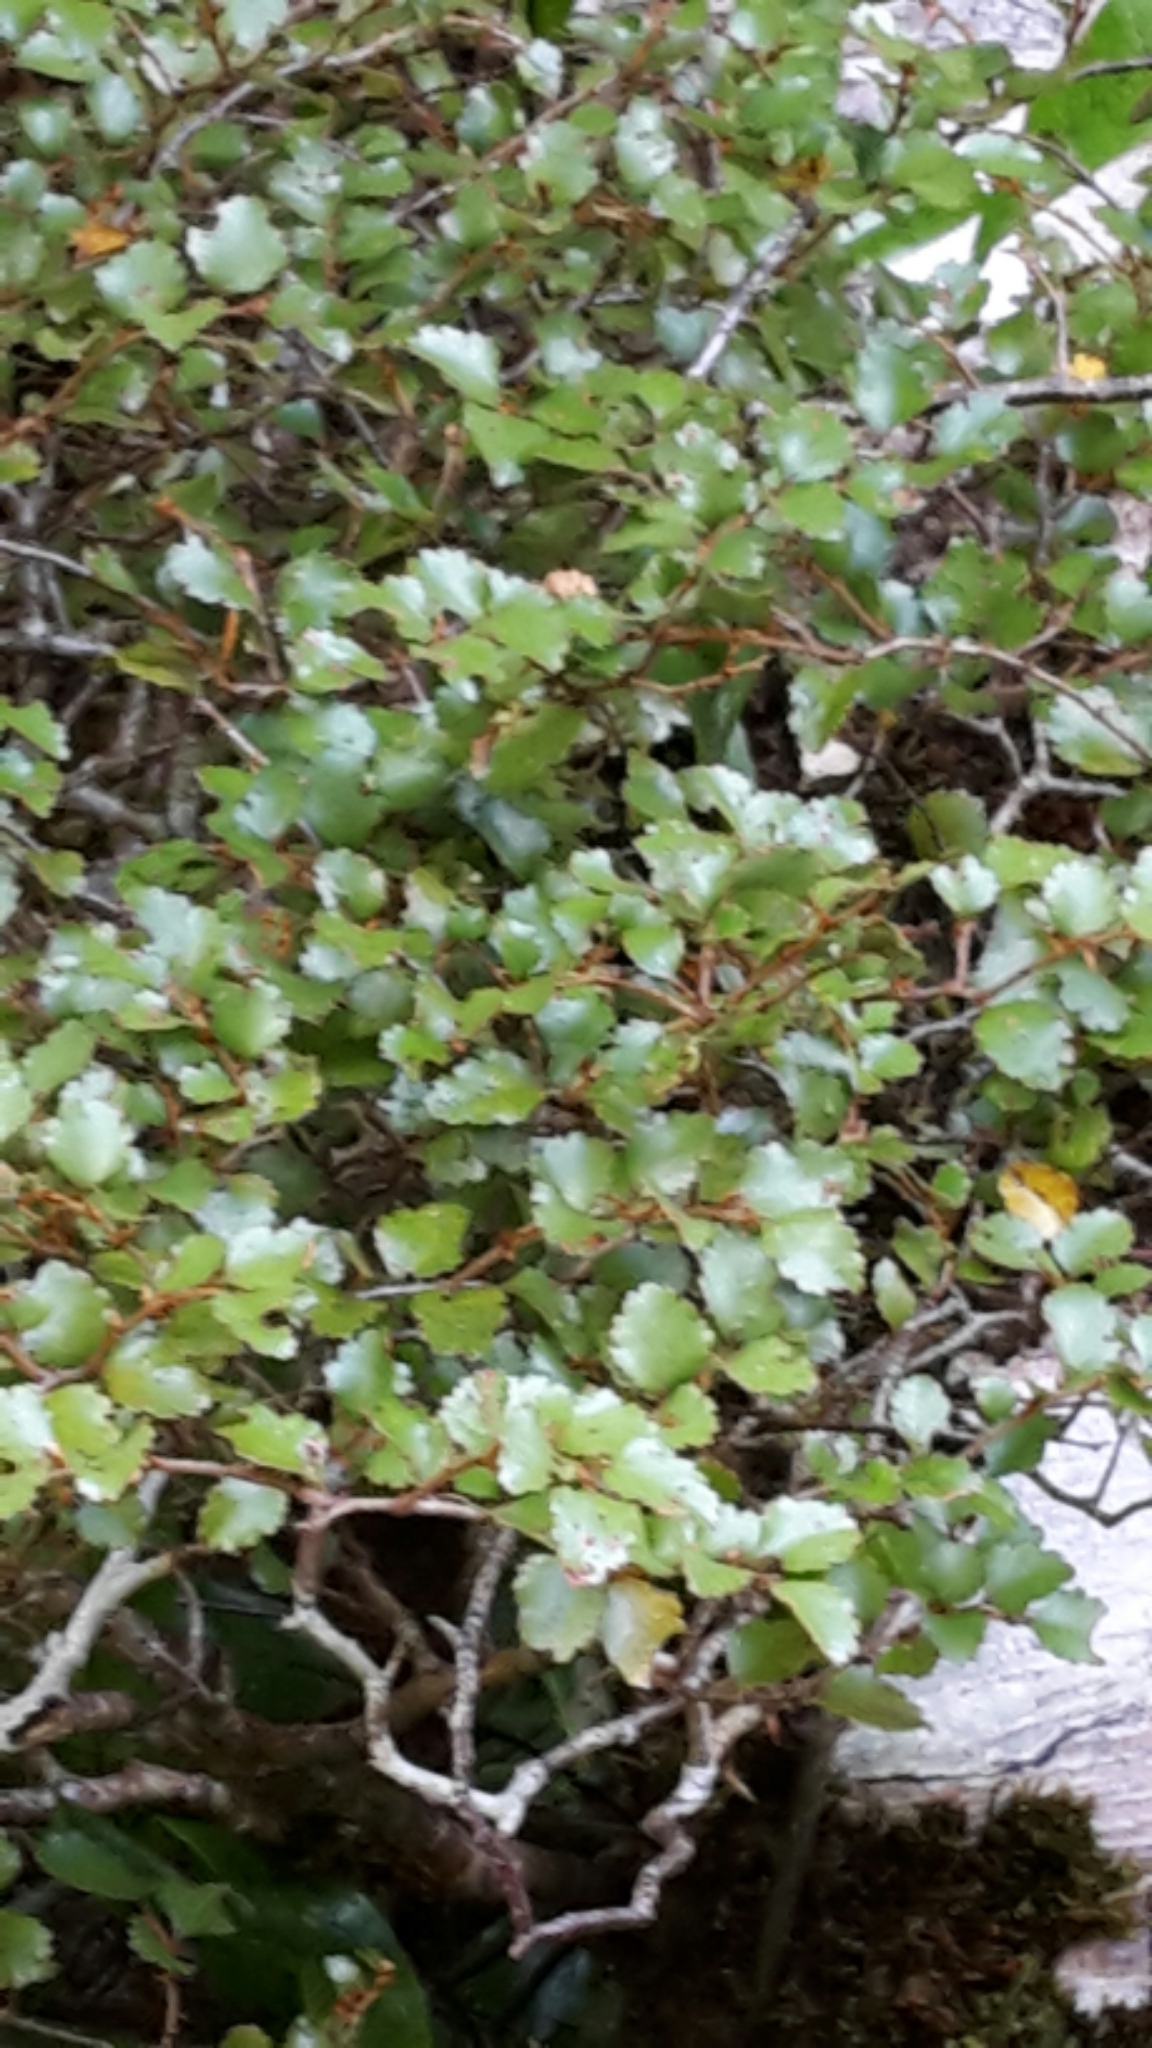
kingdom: Plantae
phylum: Tracheophyta
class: Magnoliopsida
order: Fagales
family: Nothofagaceae
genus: Nothofagus
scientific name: Nothofagus menziesii
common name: Silver beech
